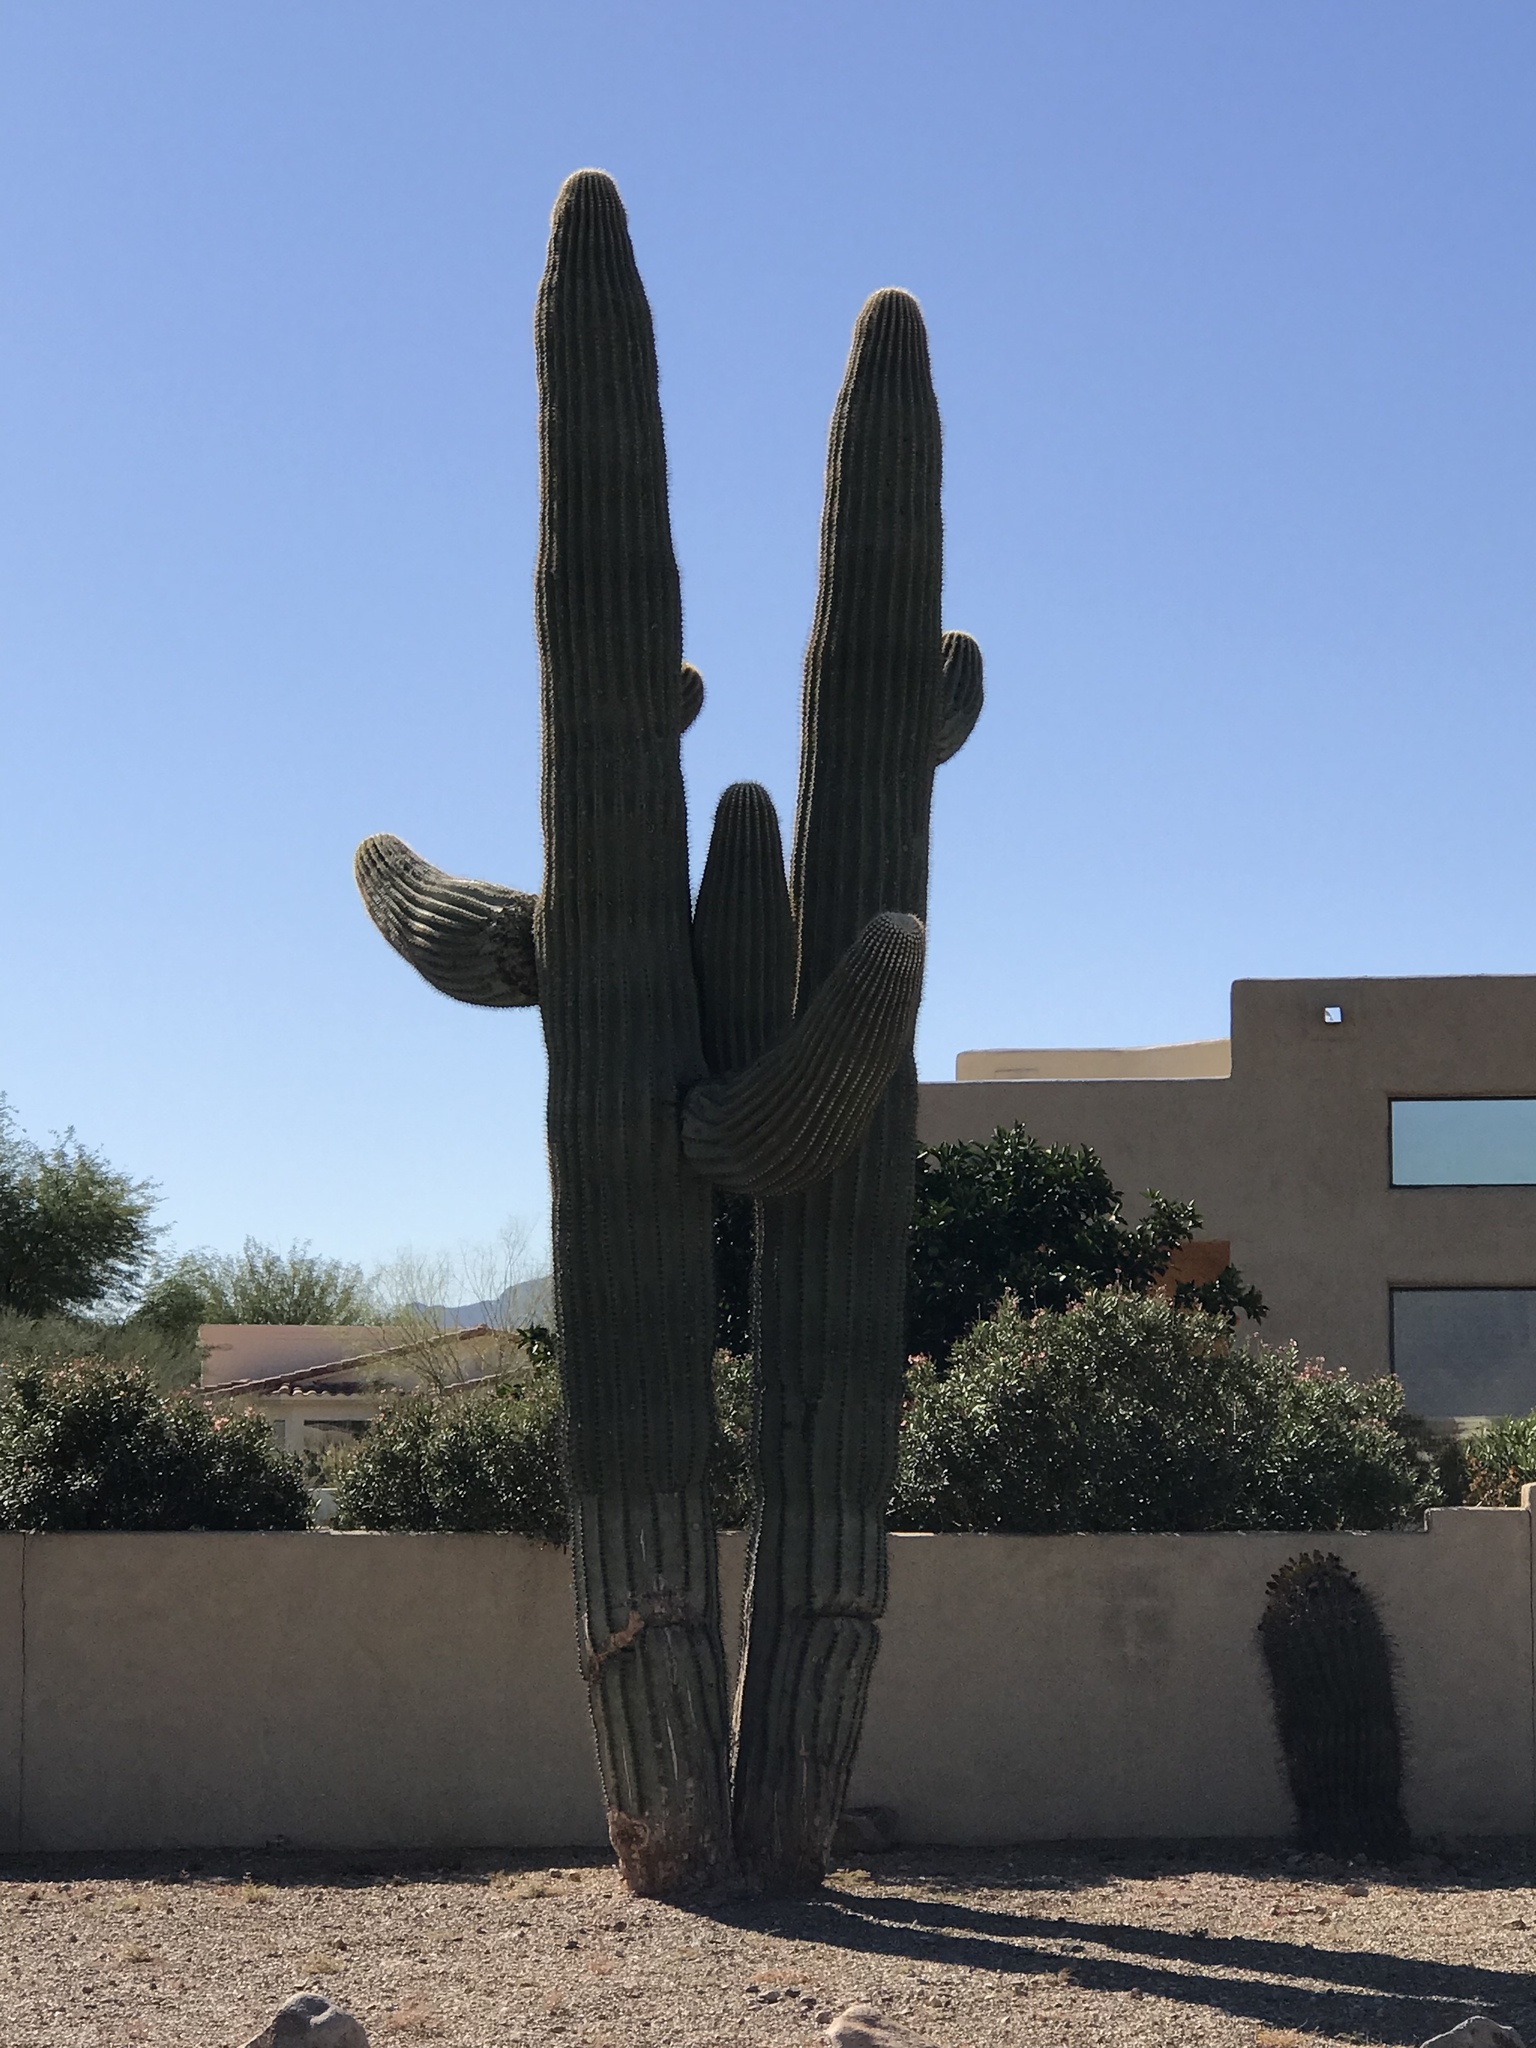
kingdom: Plantae
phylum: Tracheophyta
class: Magnoliopsida
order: Caryophyllales
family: Cactaceae
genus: Carnegiea
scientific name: Carnegiea gigantea
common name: Saguaro
